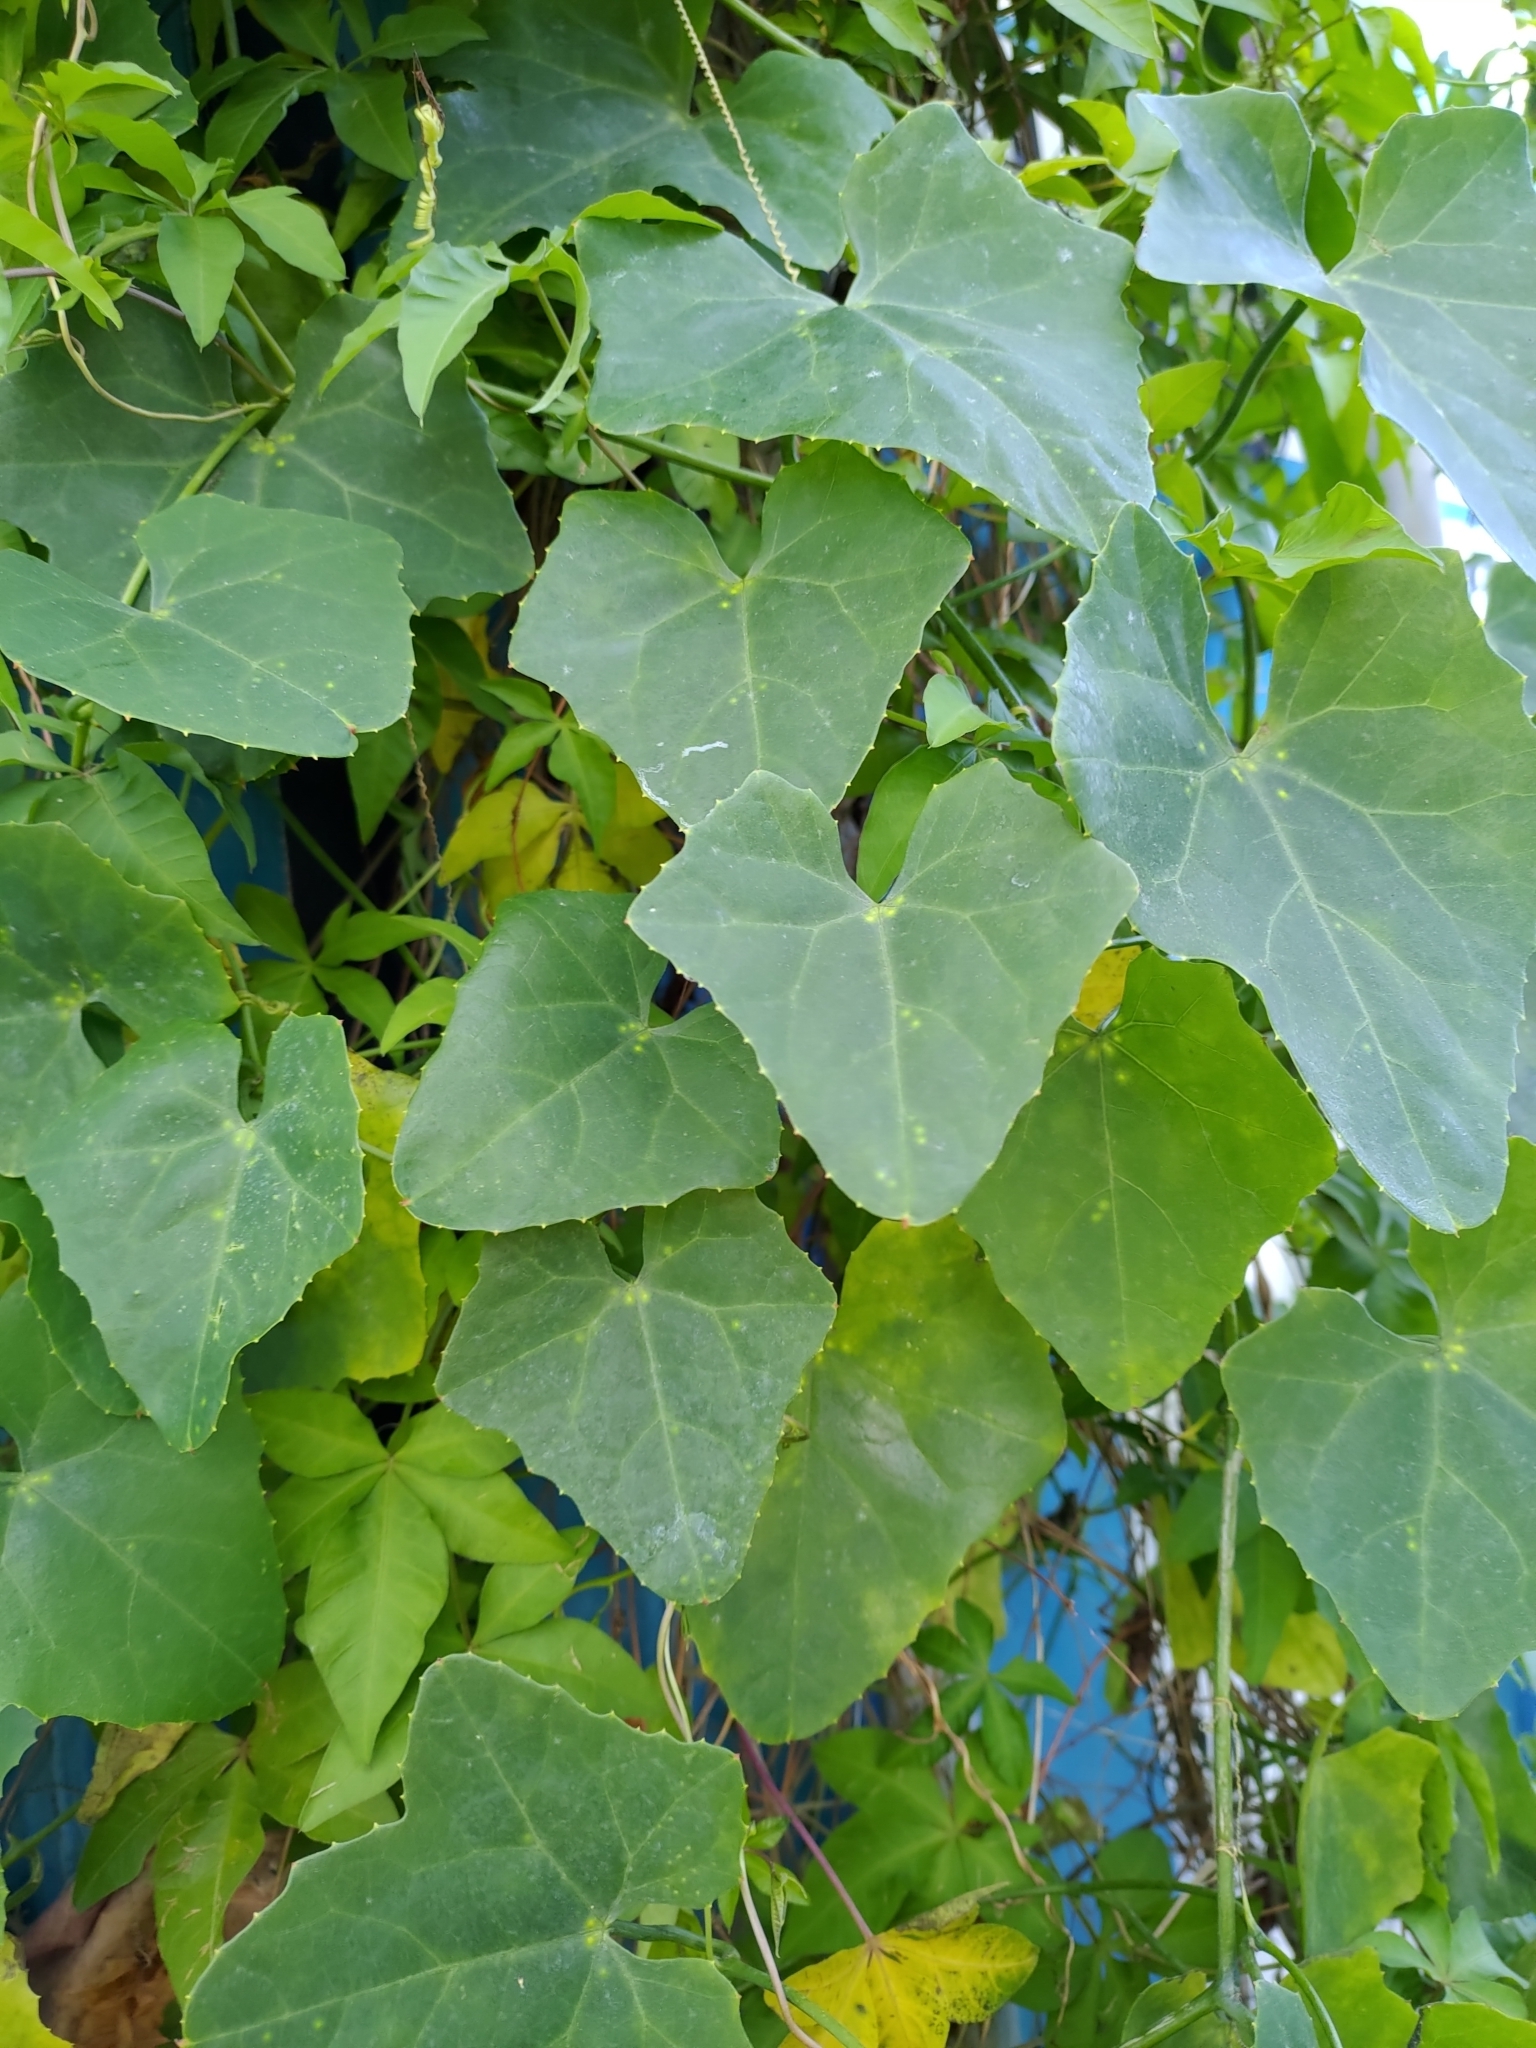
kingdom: Plantae
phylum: Tracheophyta
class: Magnoliopsida
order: Cucurbitales
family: Cucurbitaceae
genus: Coccinia
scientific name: Coccinia grandis
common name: Ivy gourd
